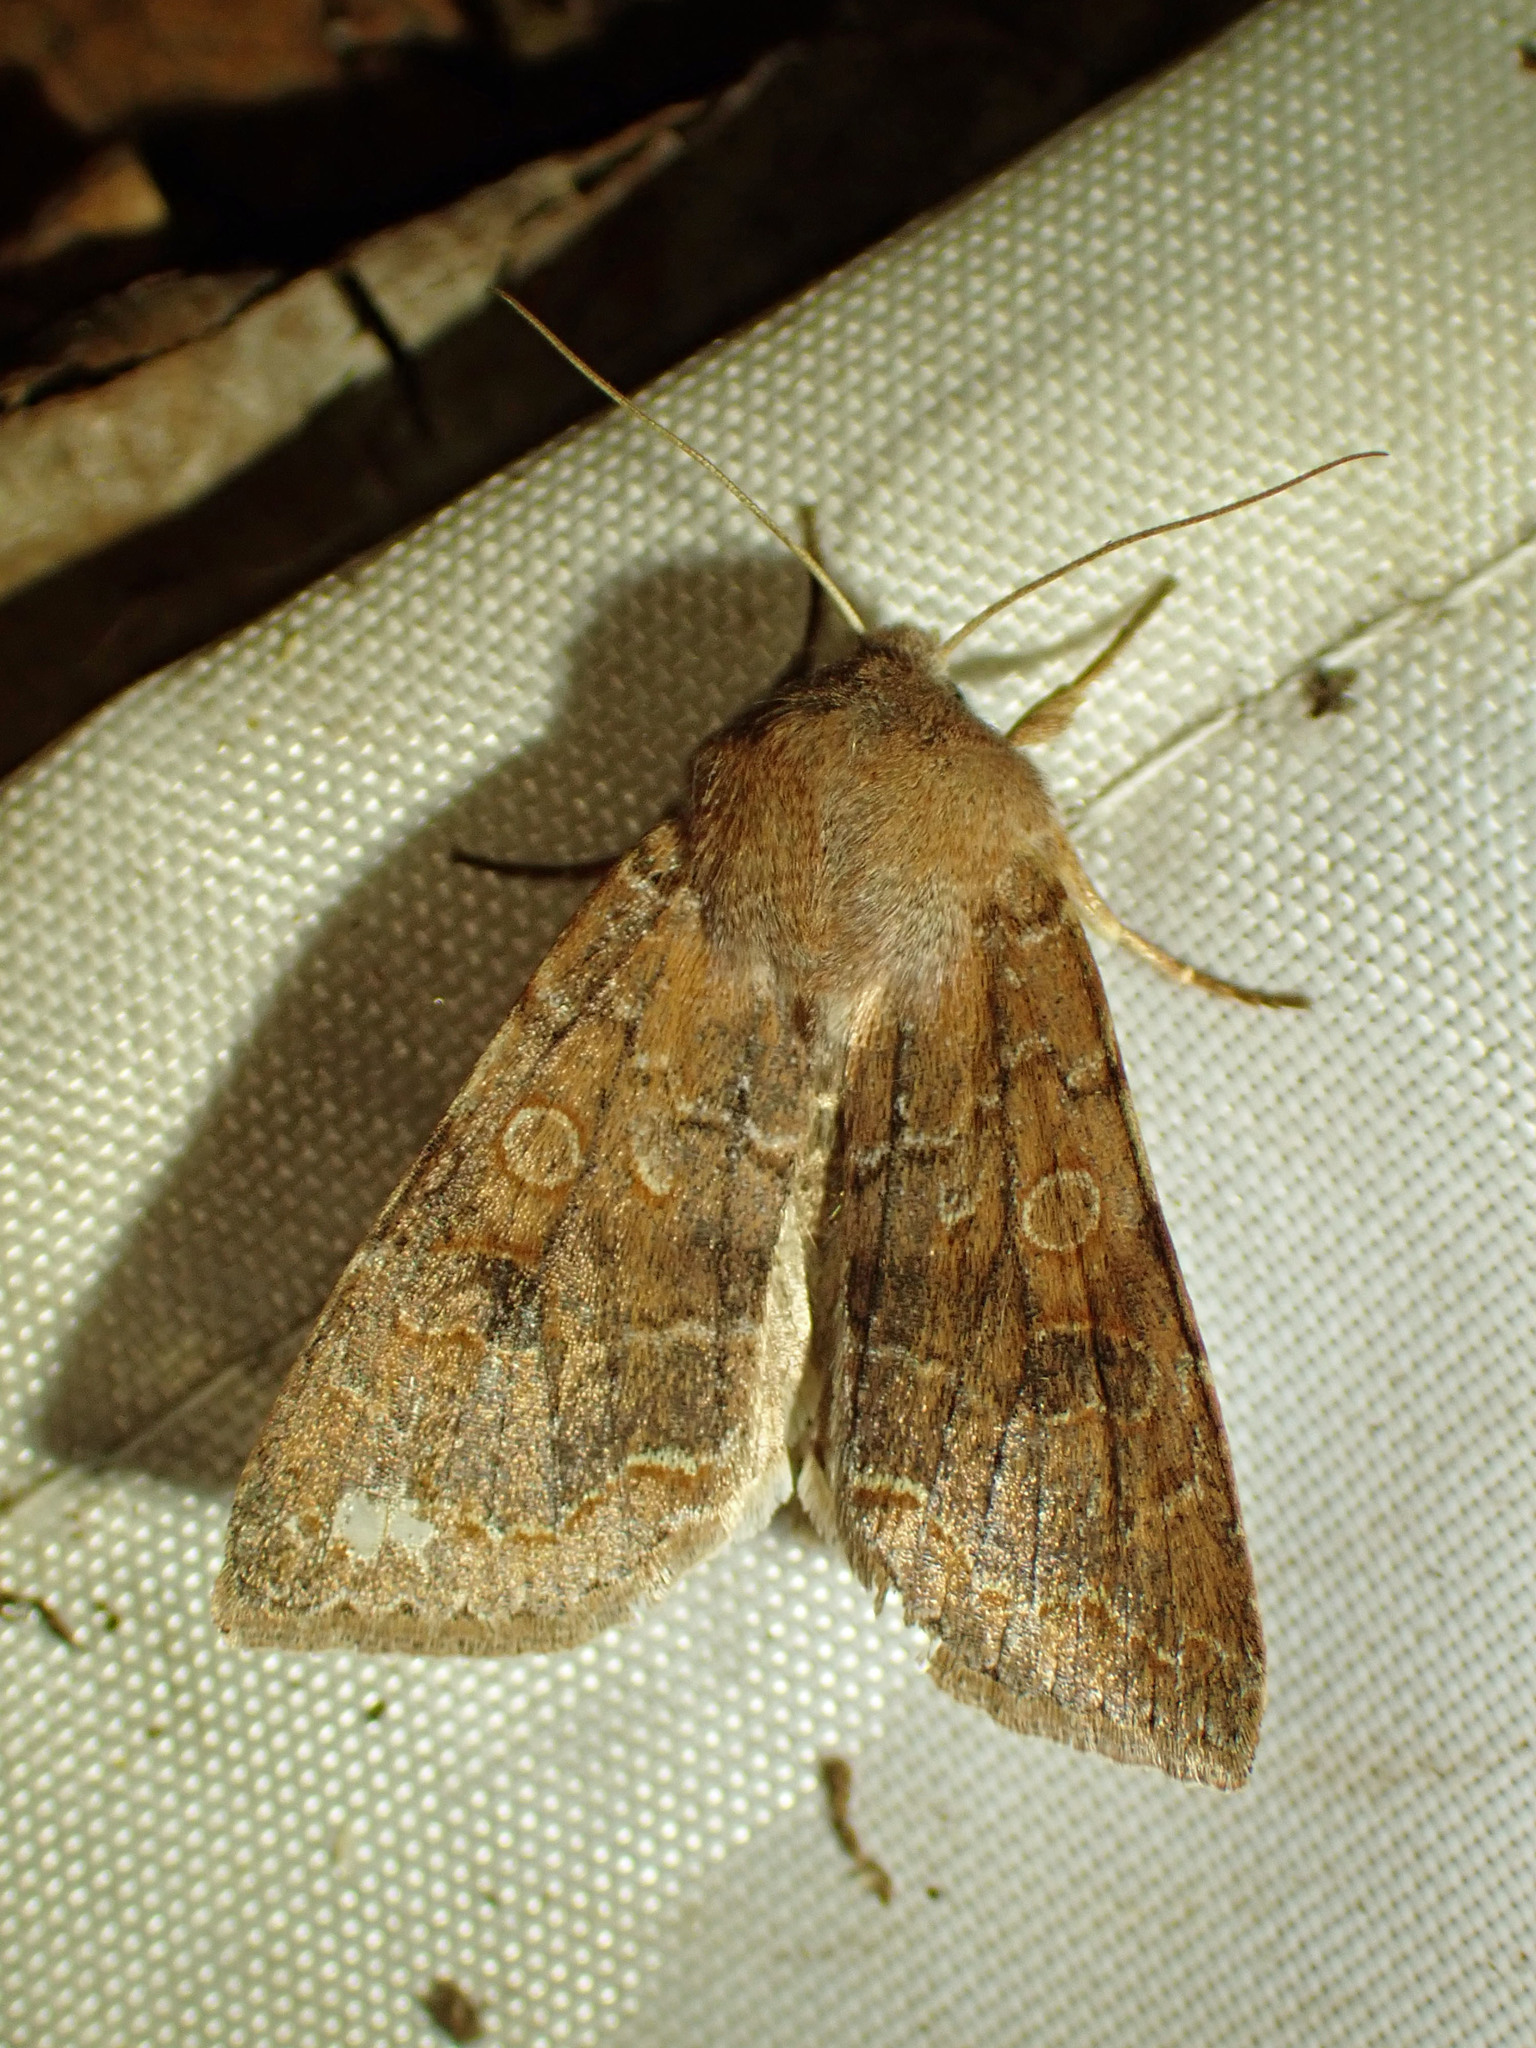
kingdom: Animalia
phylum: Arthropoda
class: Insecta
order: Lepidoptera
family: Noctuidae
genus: Orthosia
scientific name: Orthosia revicta
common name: Rusty whitesided caterpillar
